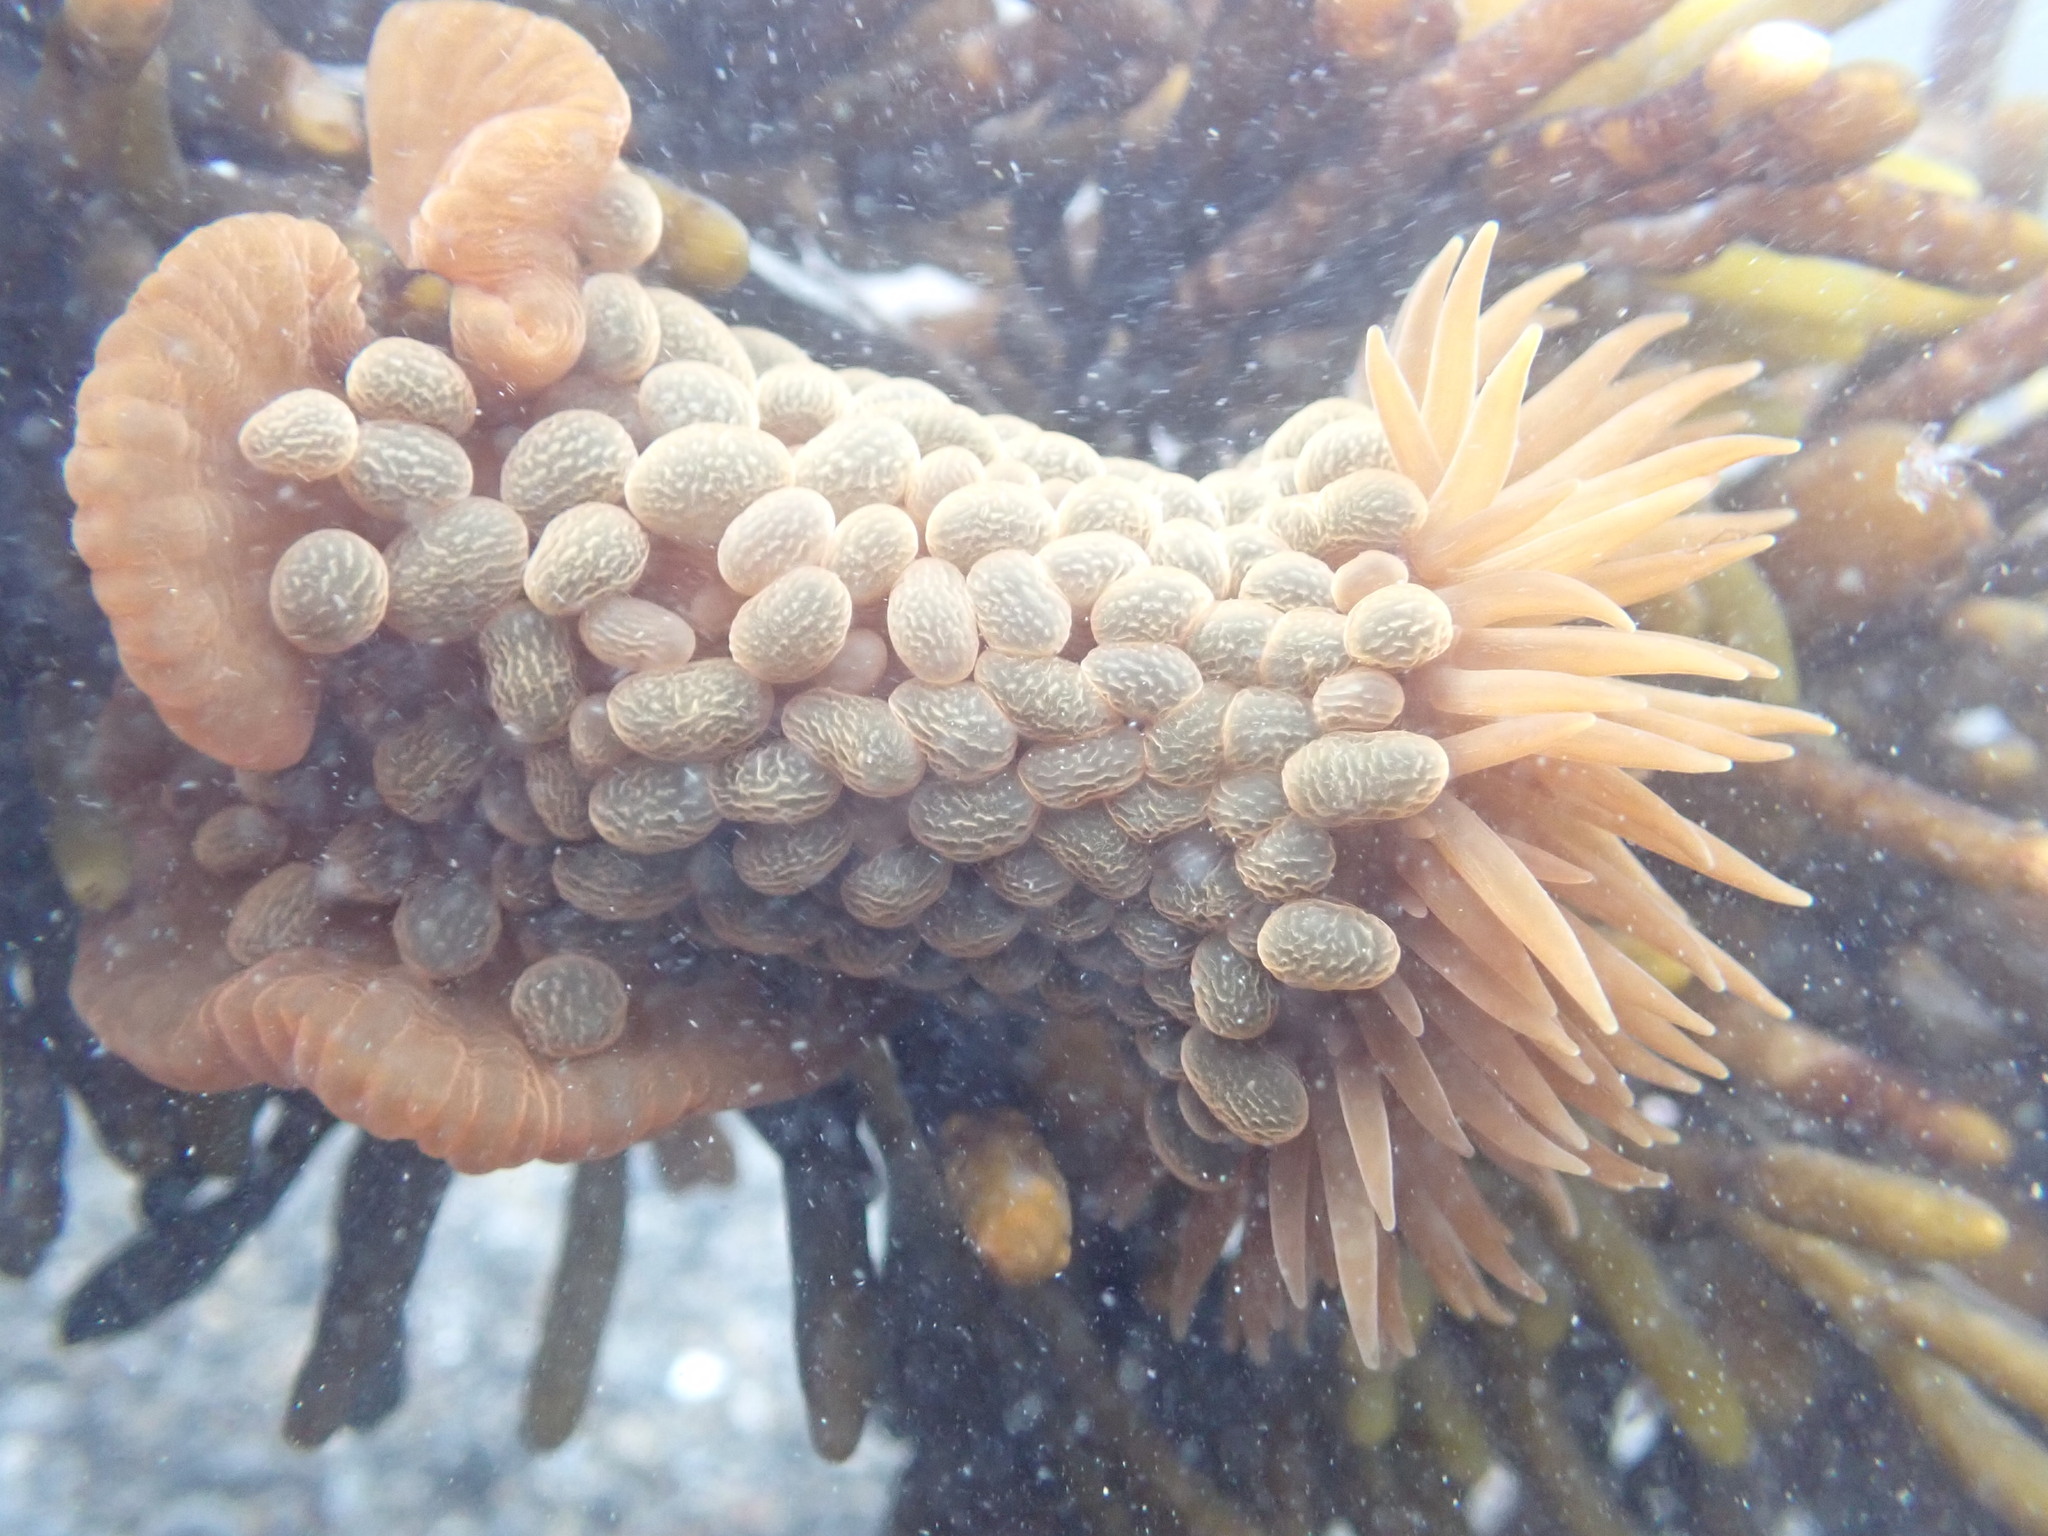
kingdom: Animalia
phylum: Cnidaria
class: Anthozoa
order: Actiniaria
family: Actiniidae
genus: Phlyctenactis
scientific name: Phlyctenactis tuberculosa
